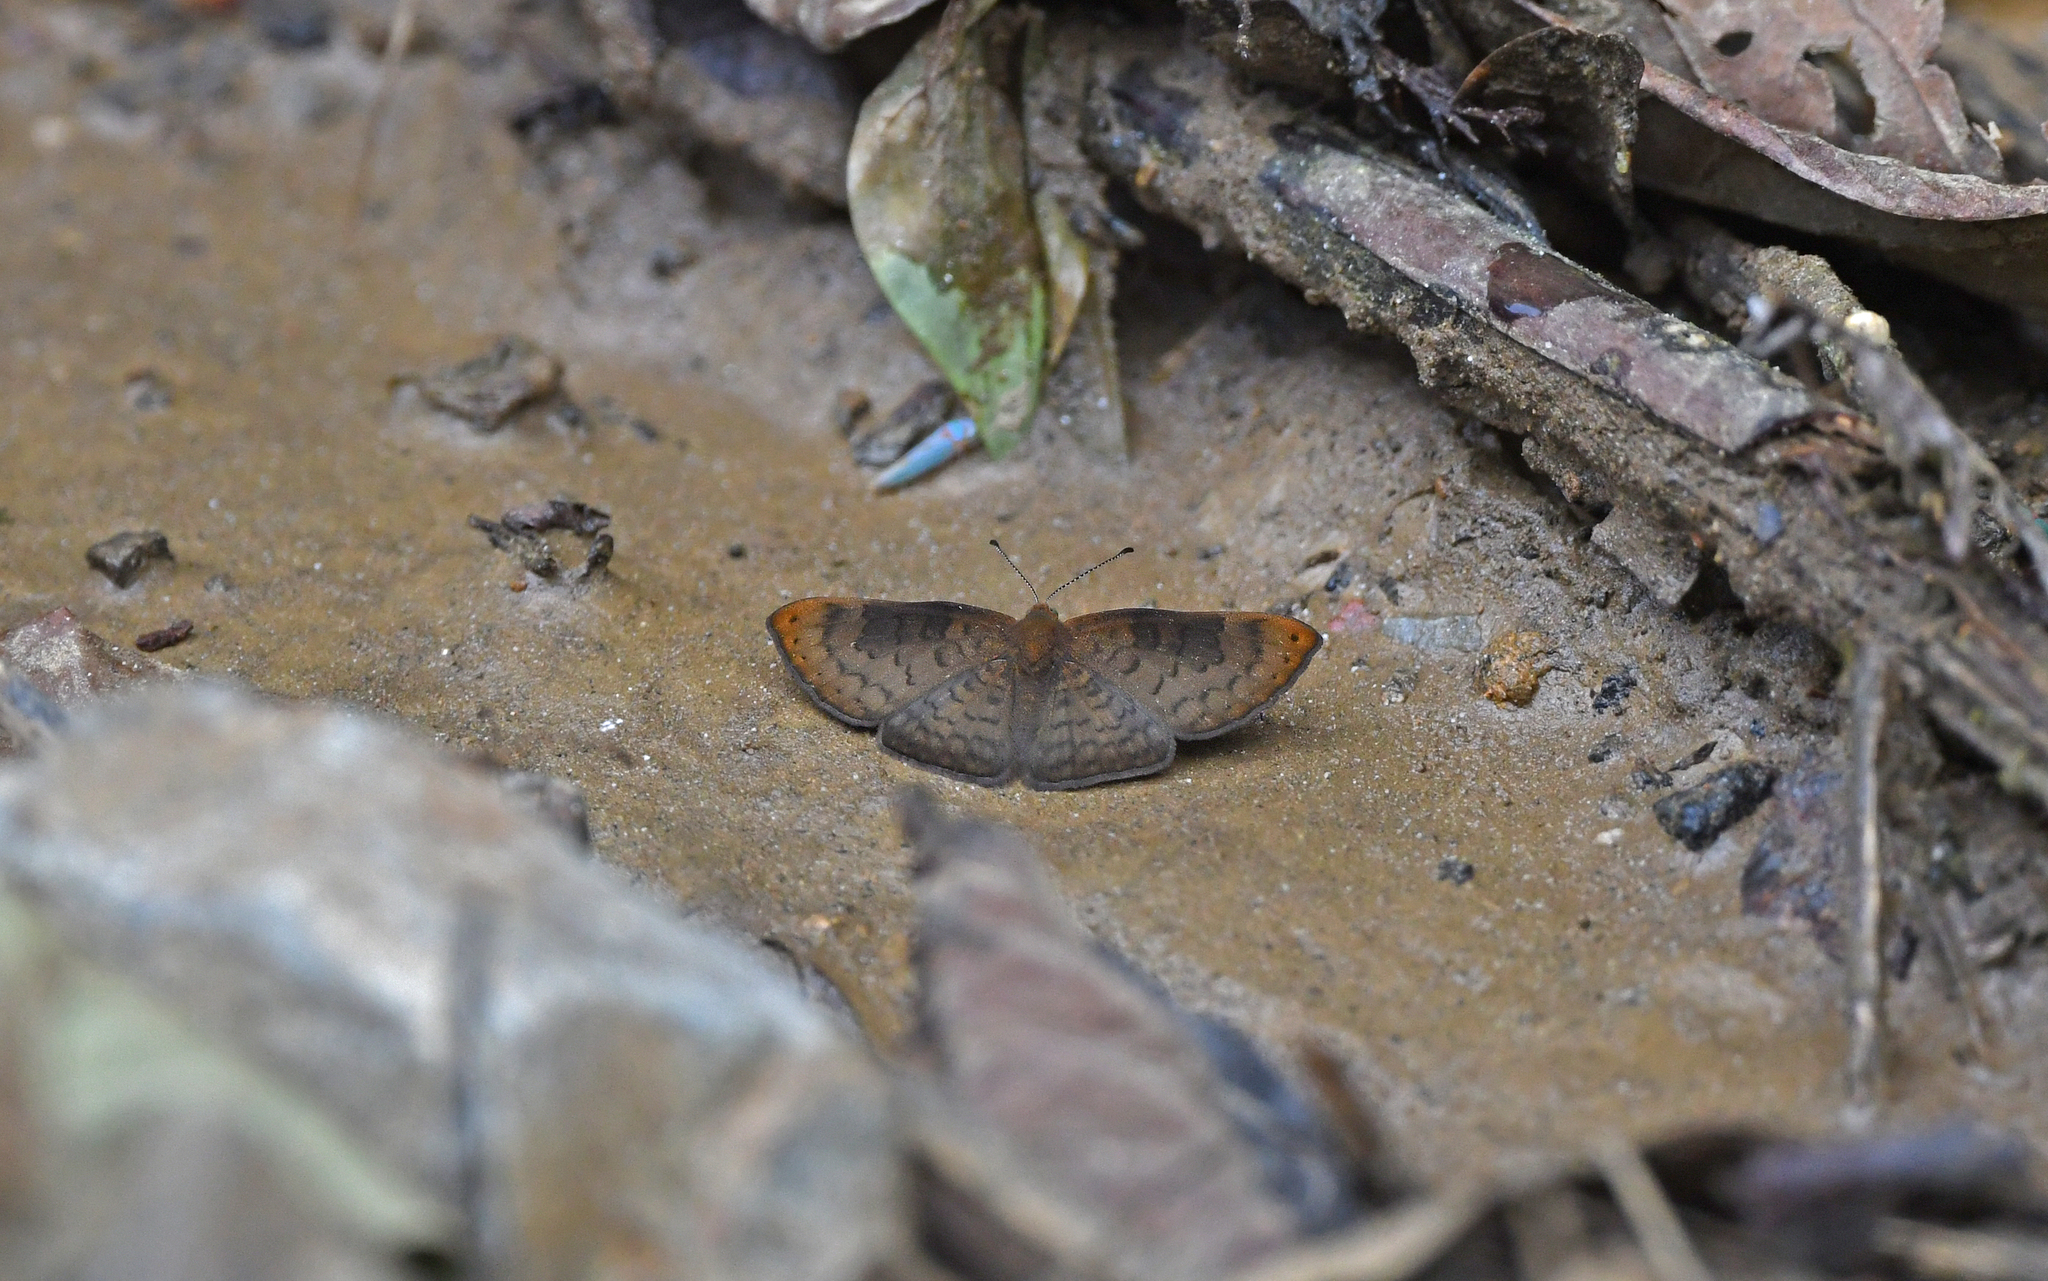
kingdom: Animalia
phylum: Arthropoda
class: Insecta
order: Lepidoptera
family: Lycaenidae
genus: Emesis
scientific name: Emesis temesa
